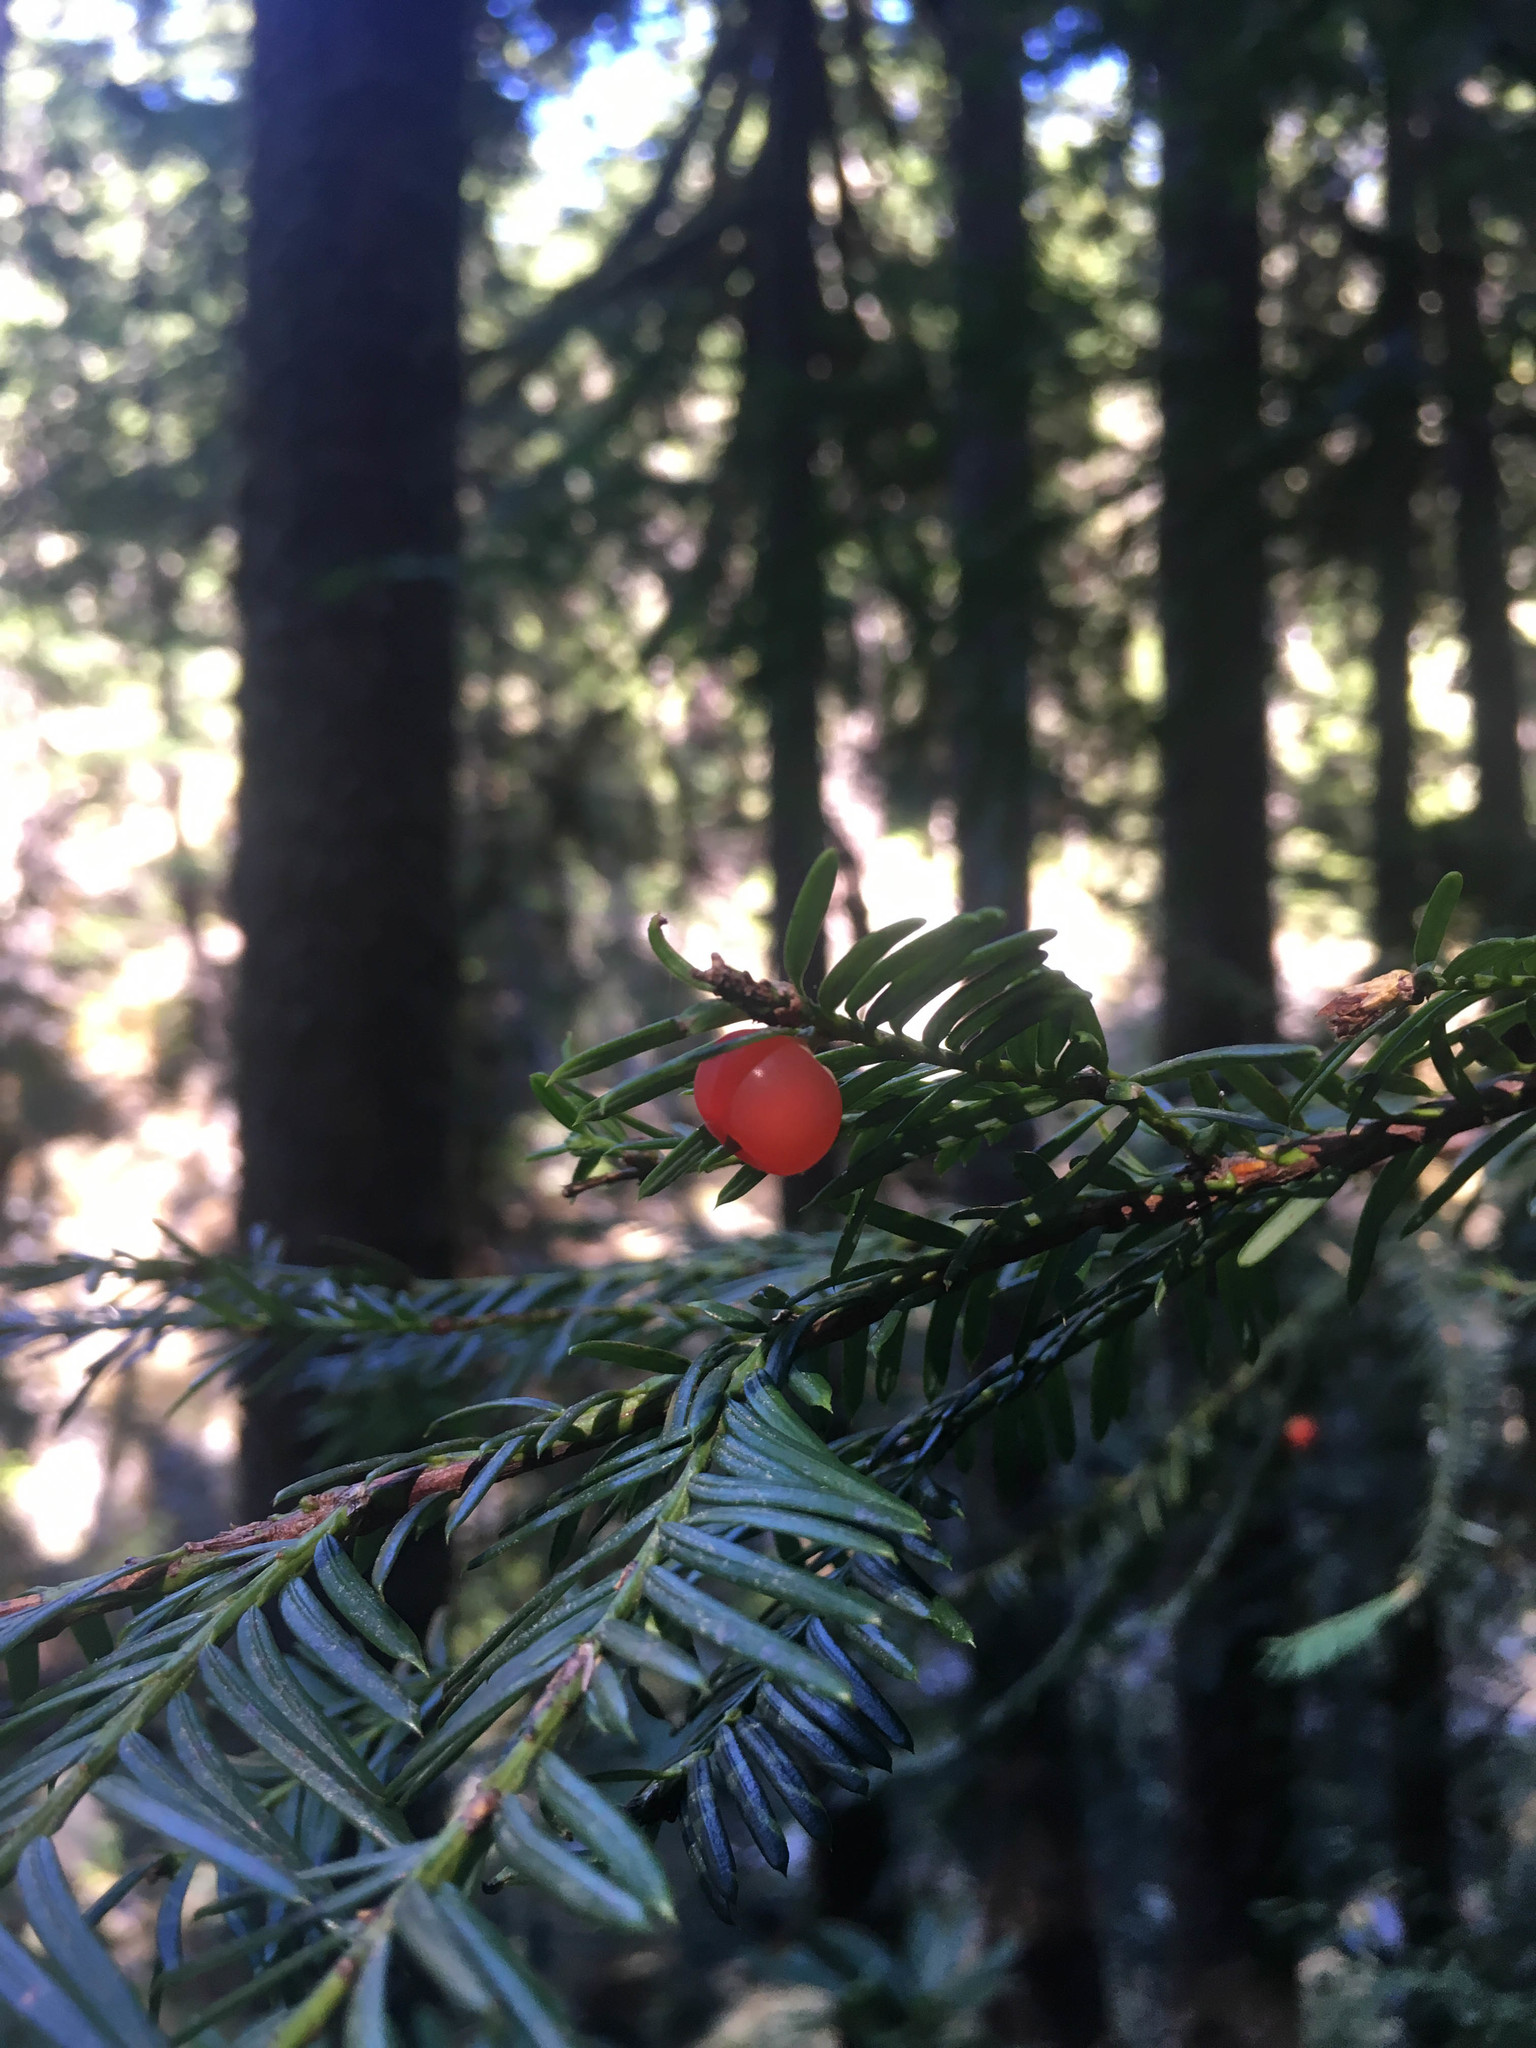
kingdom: Plantae
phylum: Tracheophyta
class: Pinopsida
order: Pinales
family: Taxaceae
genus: Taxus
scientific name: Taxus brevifolia
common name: Pacific yew
